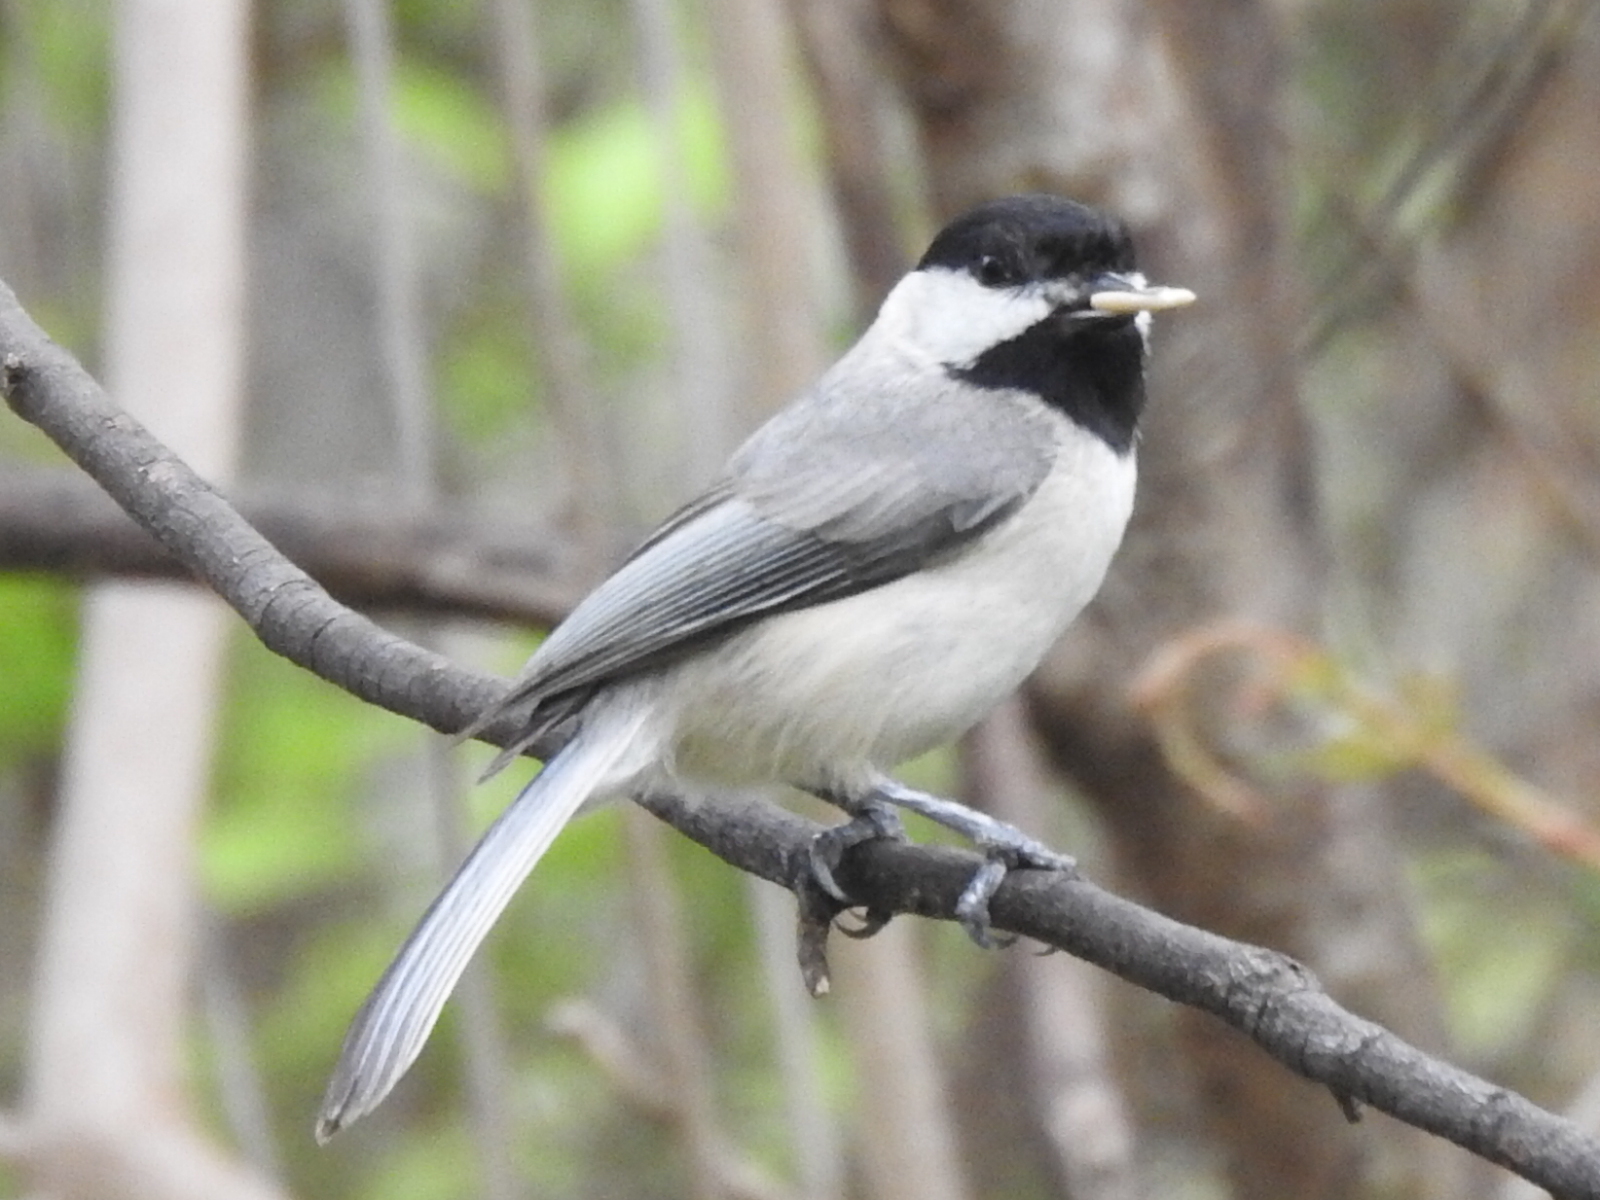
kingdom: Animalia
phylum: Chordata
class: Aves
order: Passeriformes
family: Paridae
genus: Poecile
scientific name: Poecile carolinensis
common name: Carolina chickadee
